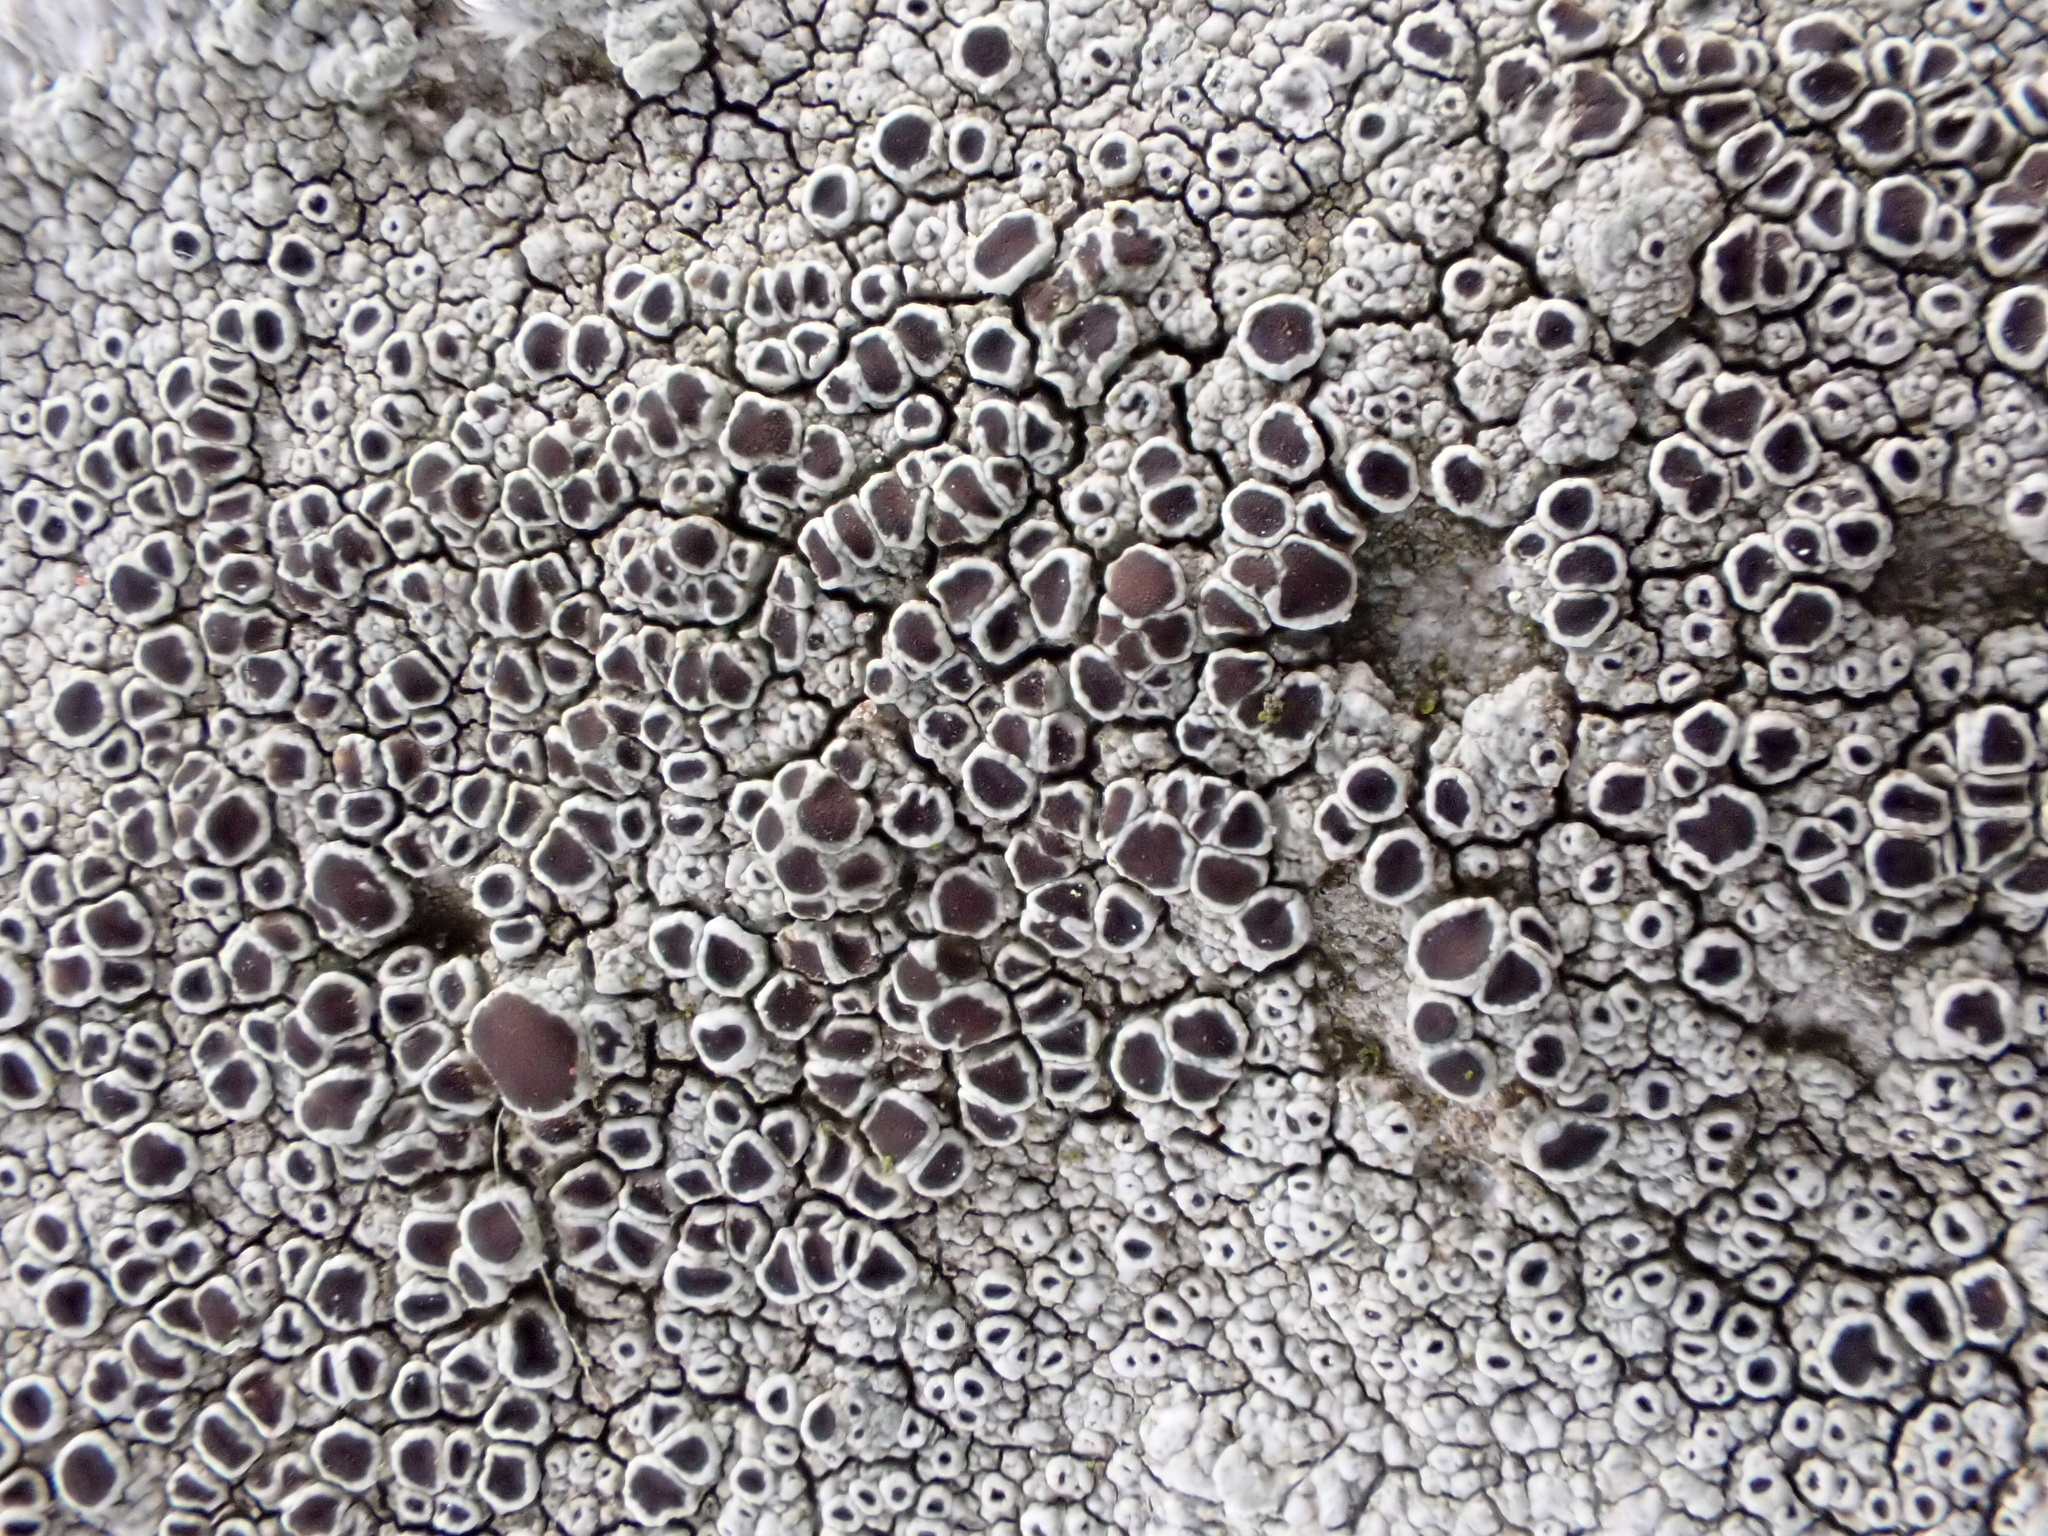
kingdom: Fungi
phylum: Ascomycota
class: Lecanoromycetes
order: Lecanorales
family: Lecanoraceae
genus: Lecanora
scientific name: Lecanora campestris
